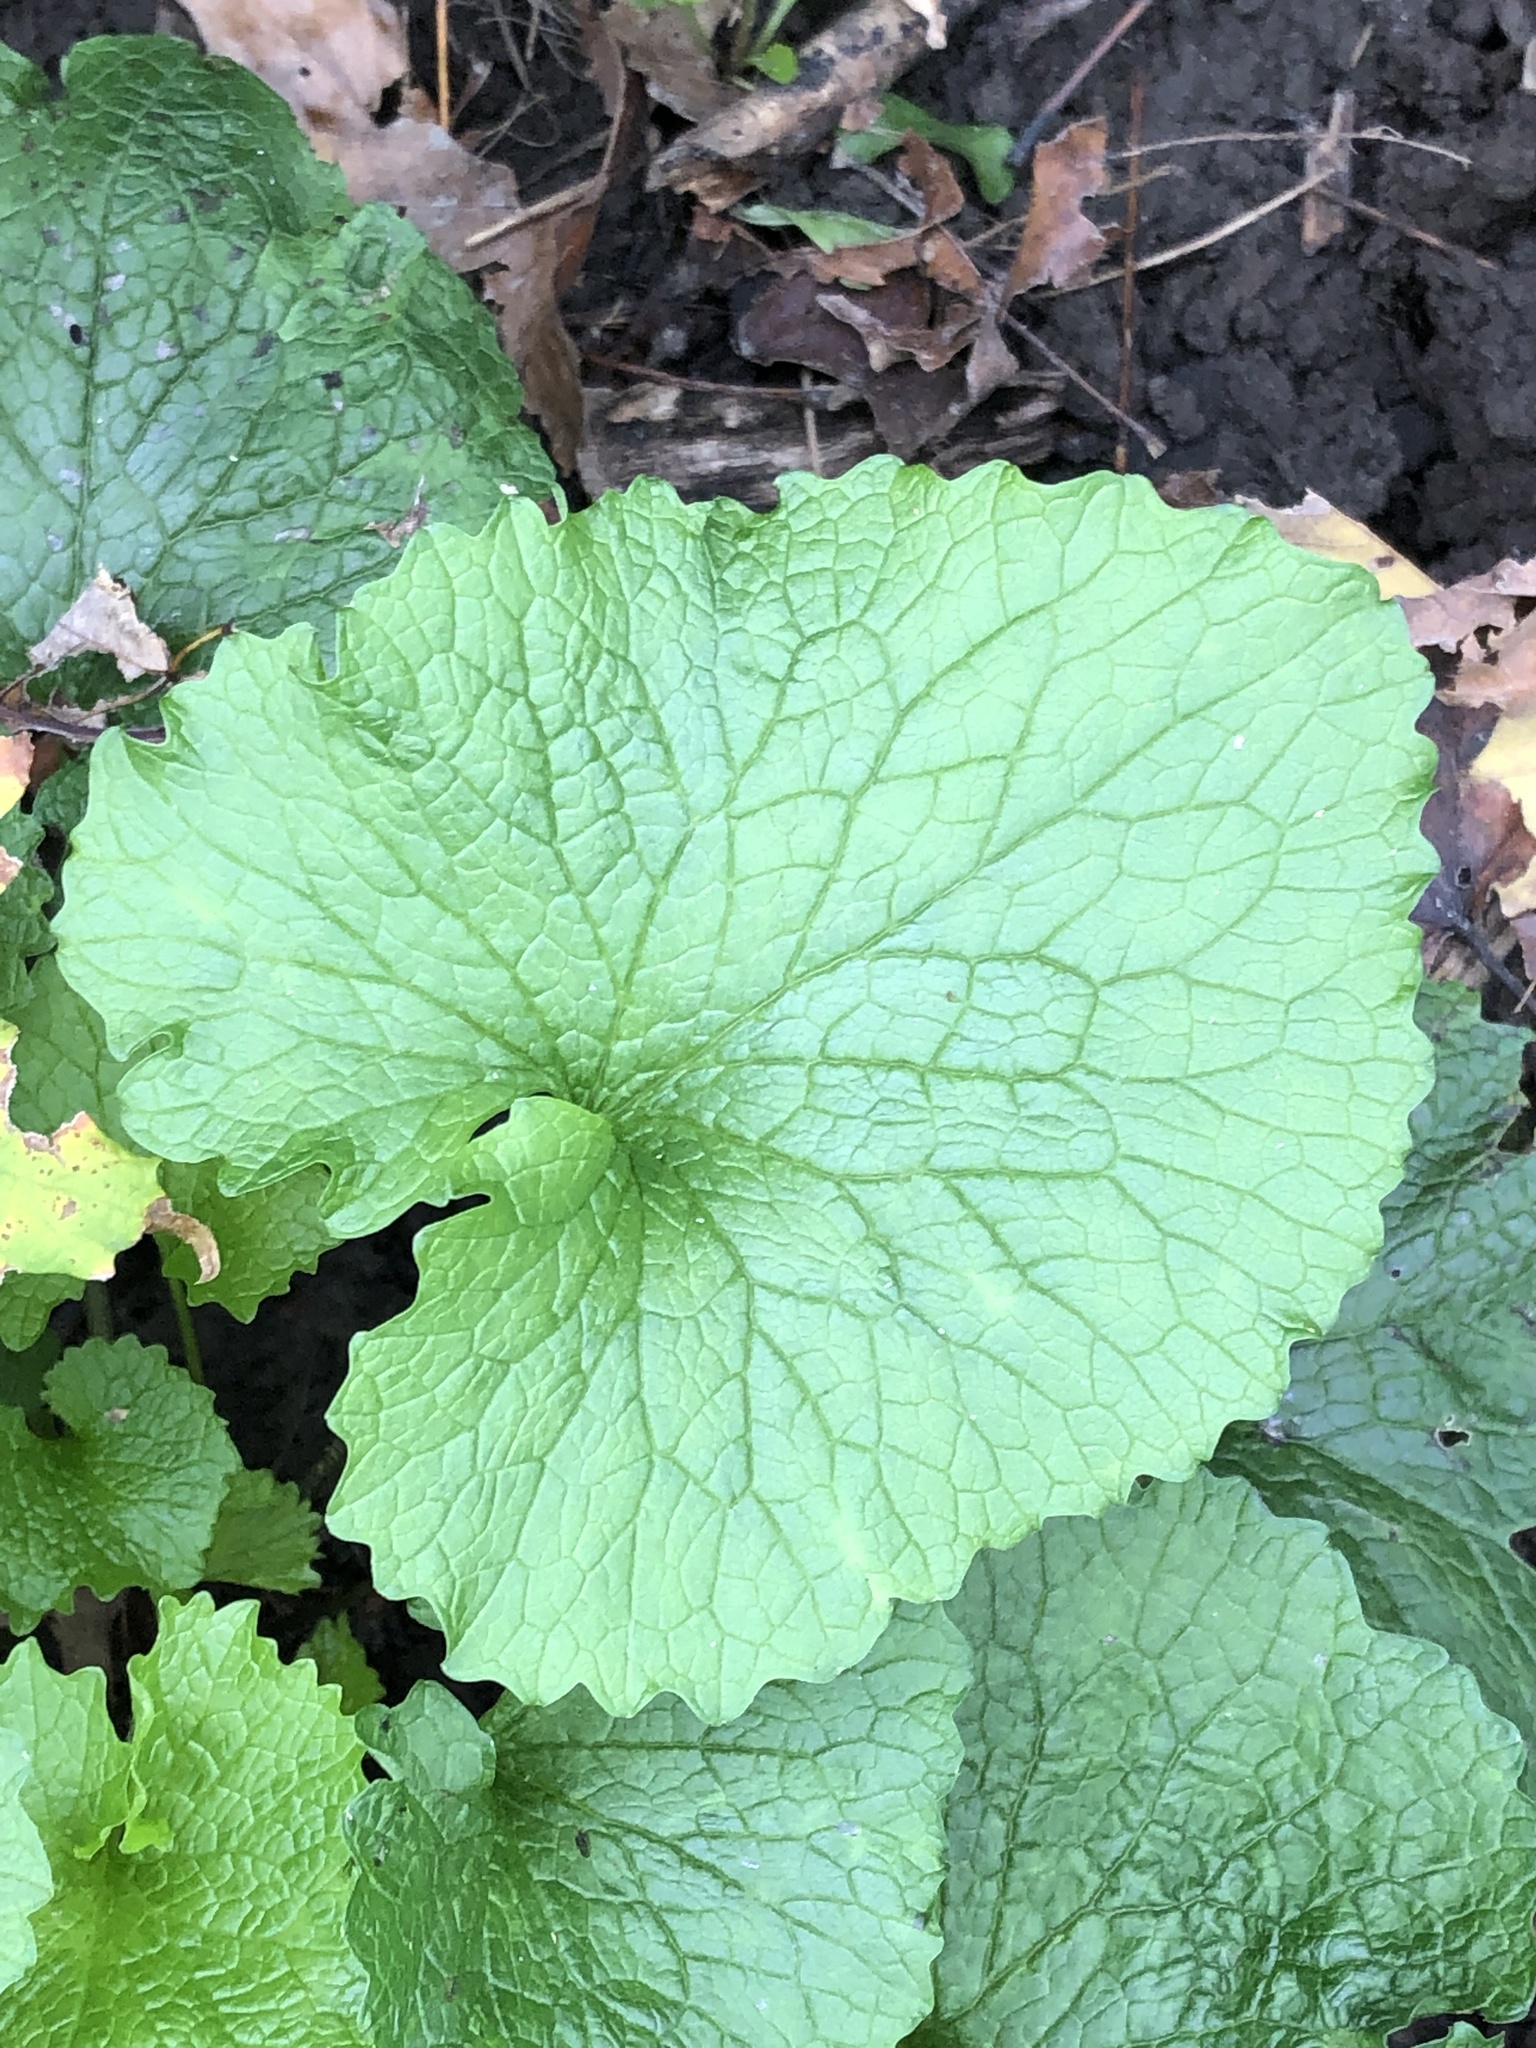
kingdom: Plantae
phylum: Tracheophyta
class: Magnoliopsida
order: Brassicales
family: Brassicaceae
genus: Alliaria
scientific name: Alliaria petiolata
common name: Garlic mustard
